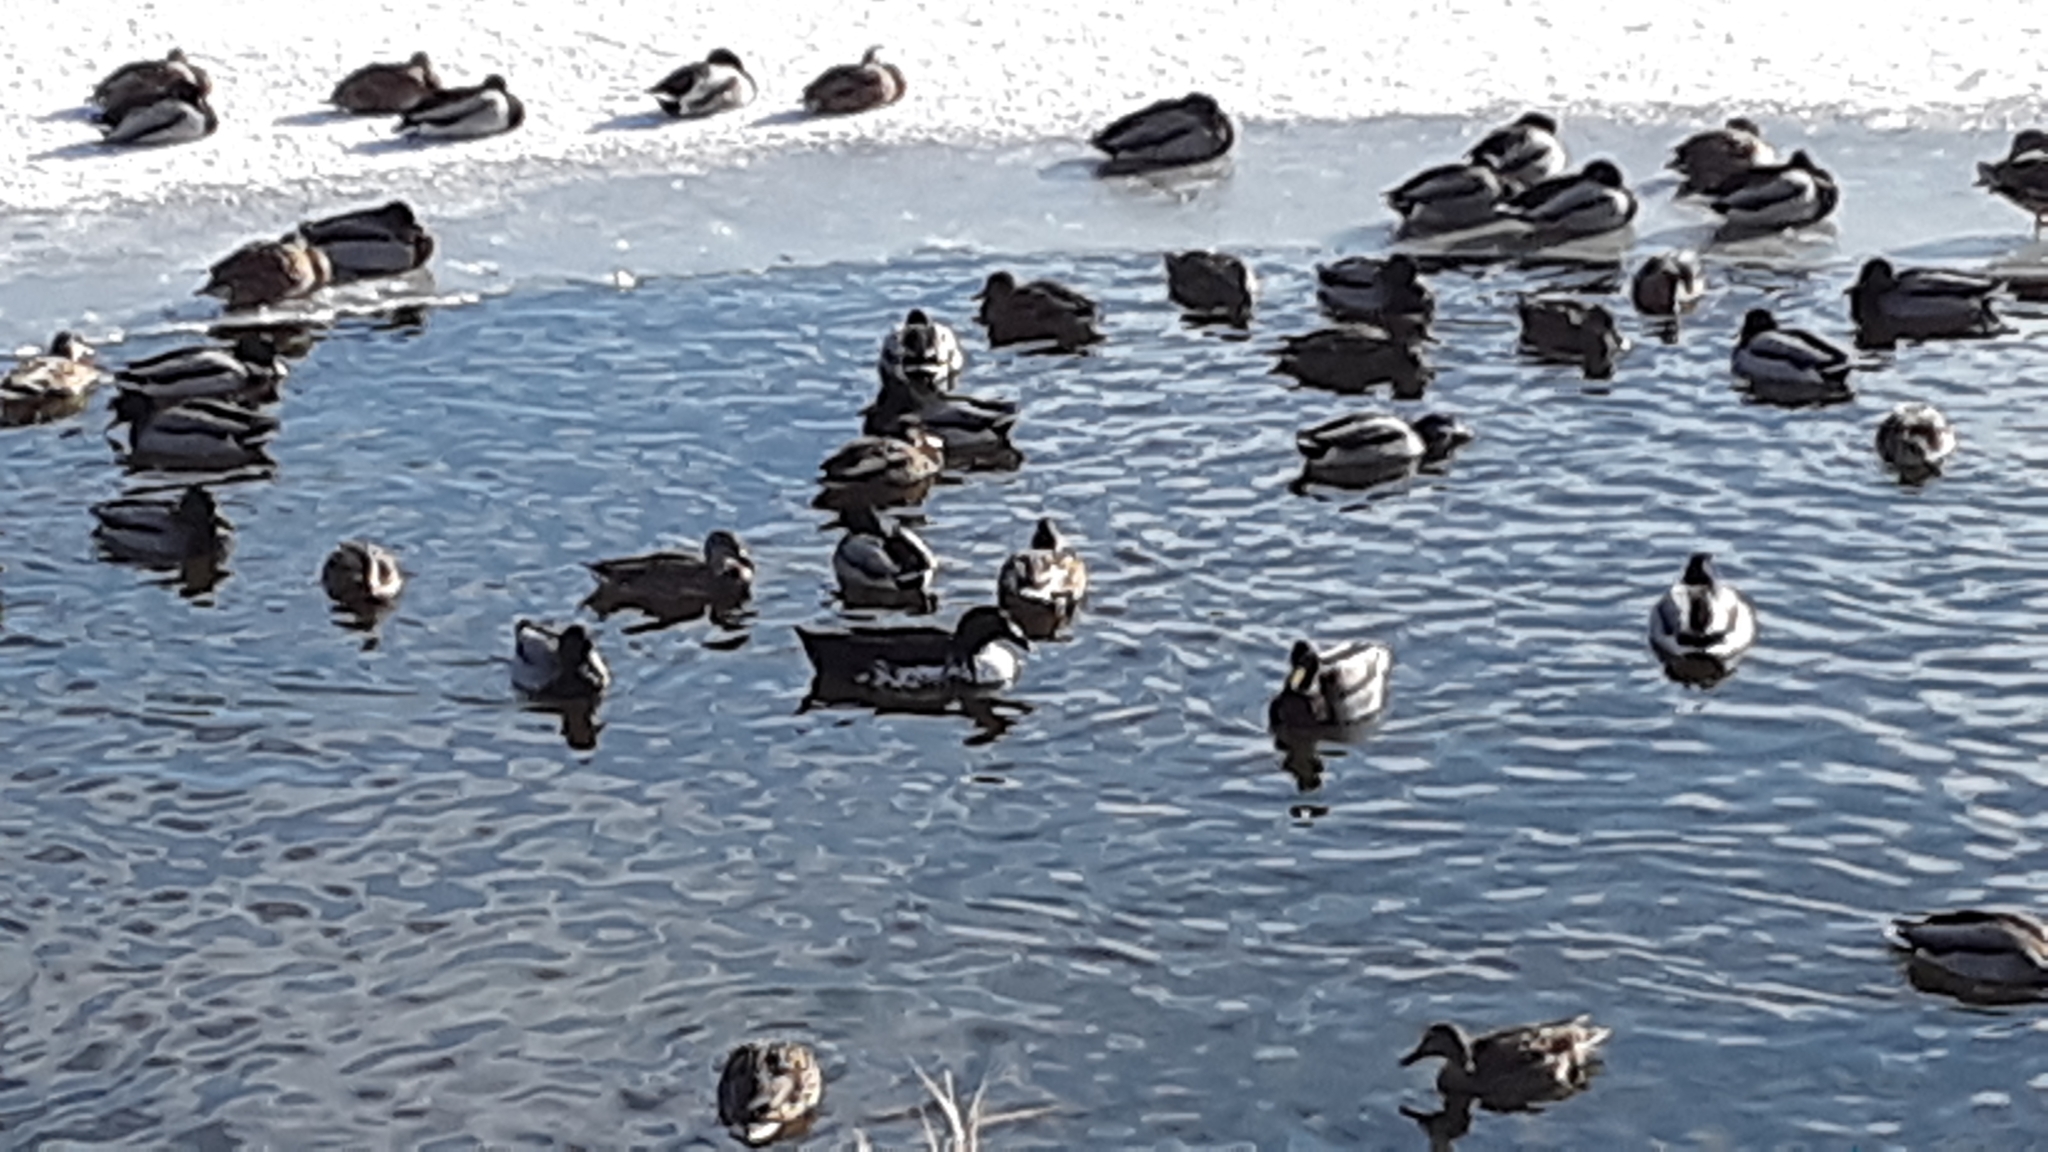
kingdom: Animalia
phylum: Chordata
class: Aves
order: Anseriformes
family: Anatidae
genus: Anas
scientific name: Anas platyrhynchos
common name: Mallard
